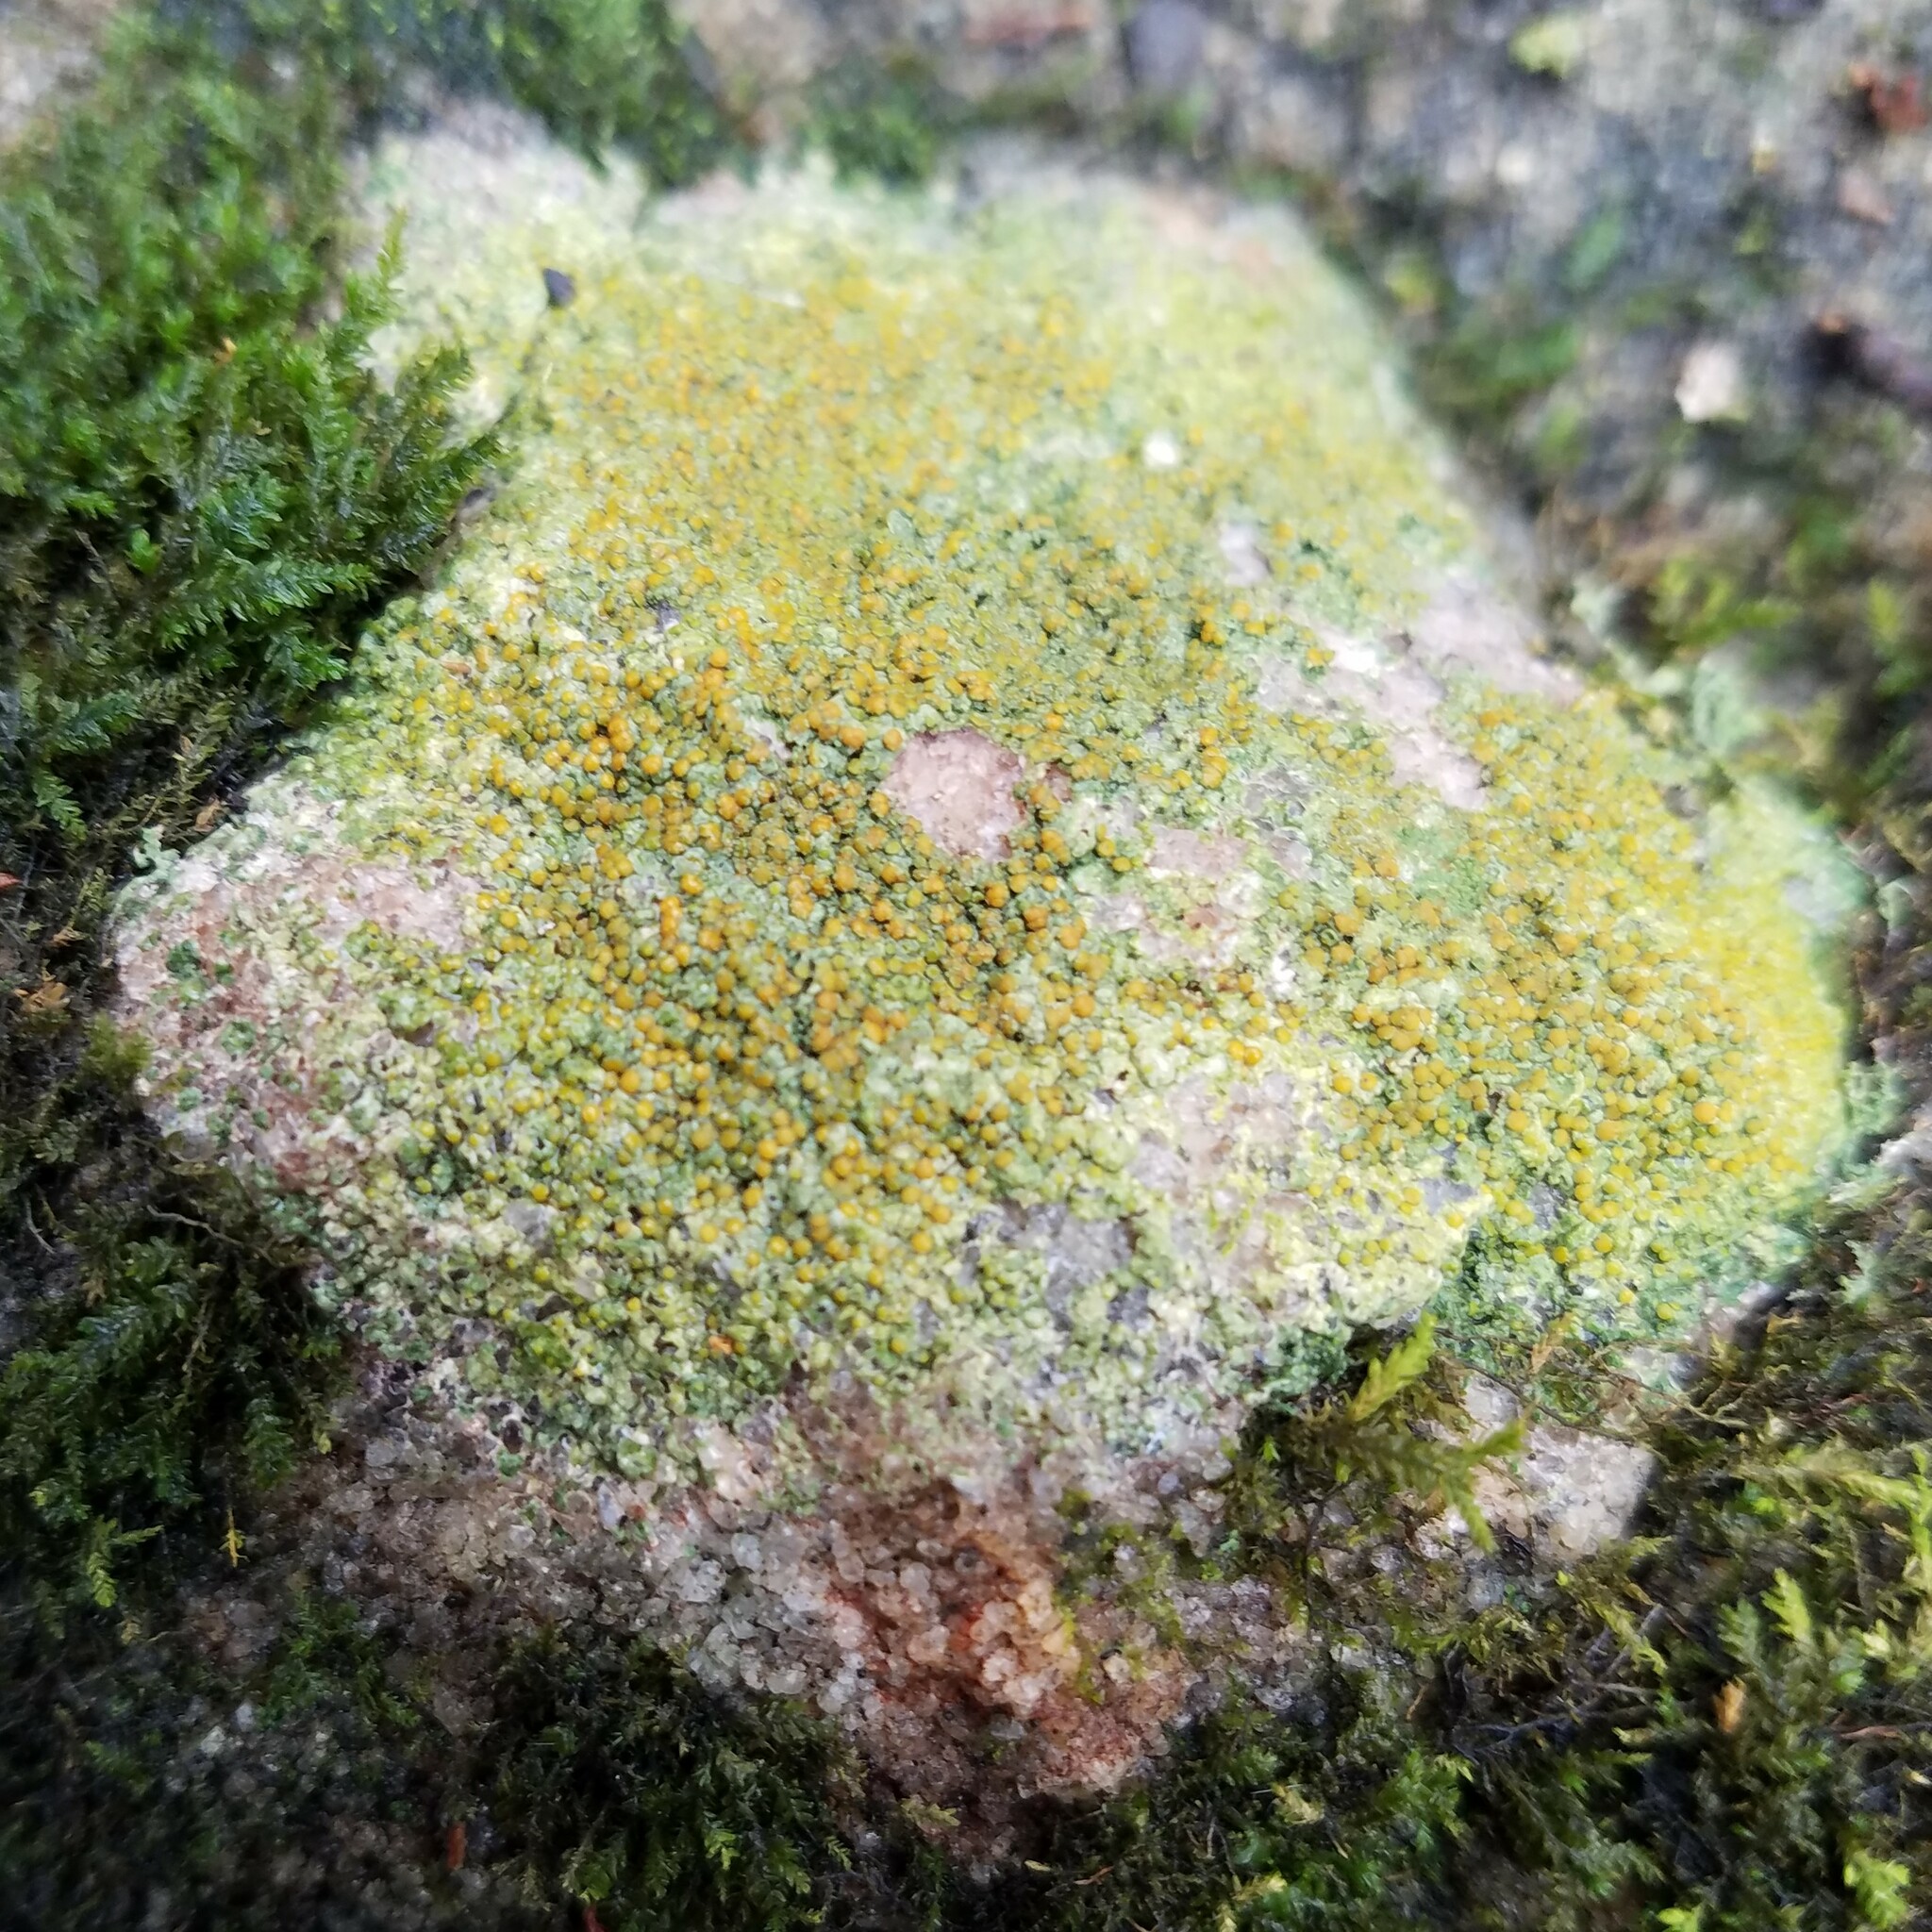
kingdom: Fungi
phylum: Ascomycota
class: Lecanoromycetes
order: Teloschistales
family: Teloschistaceae
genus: Gyalolechia
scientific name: Gyalolechia flavovirescens
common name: Sulphur firedot
